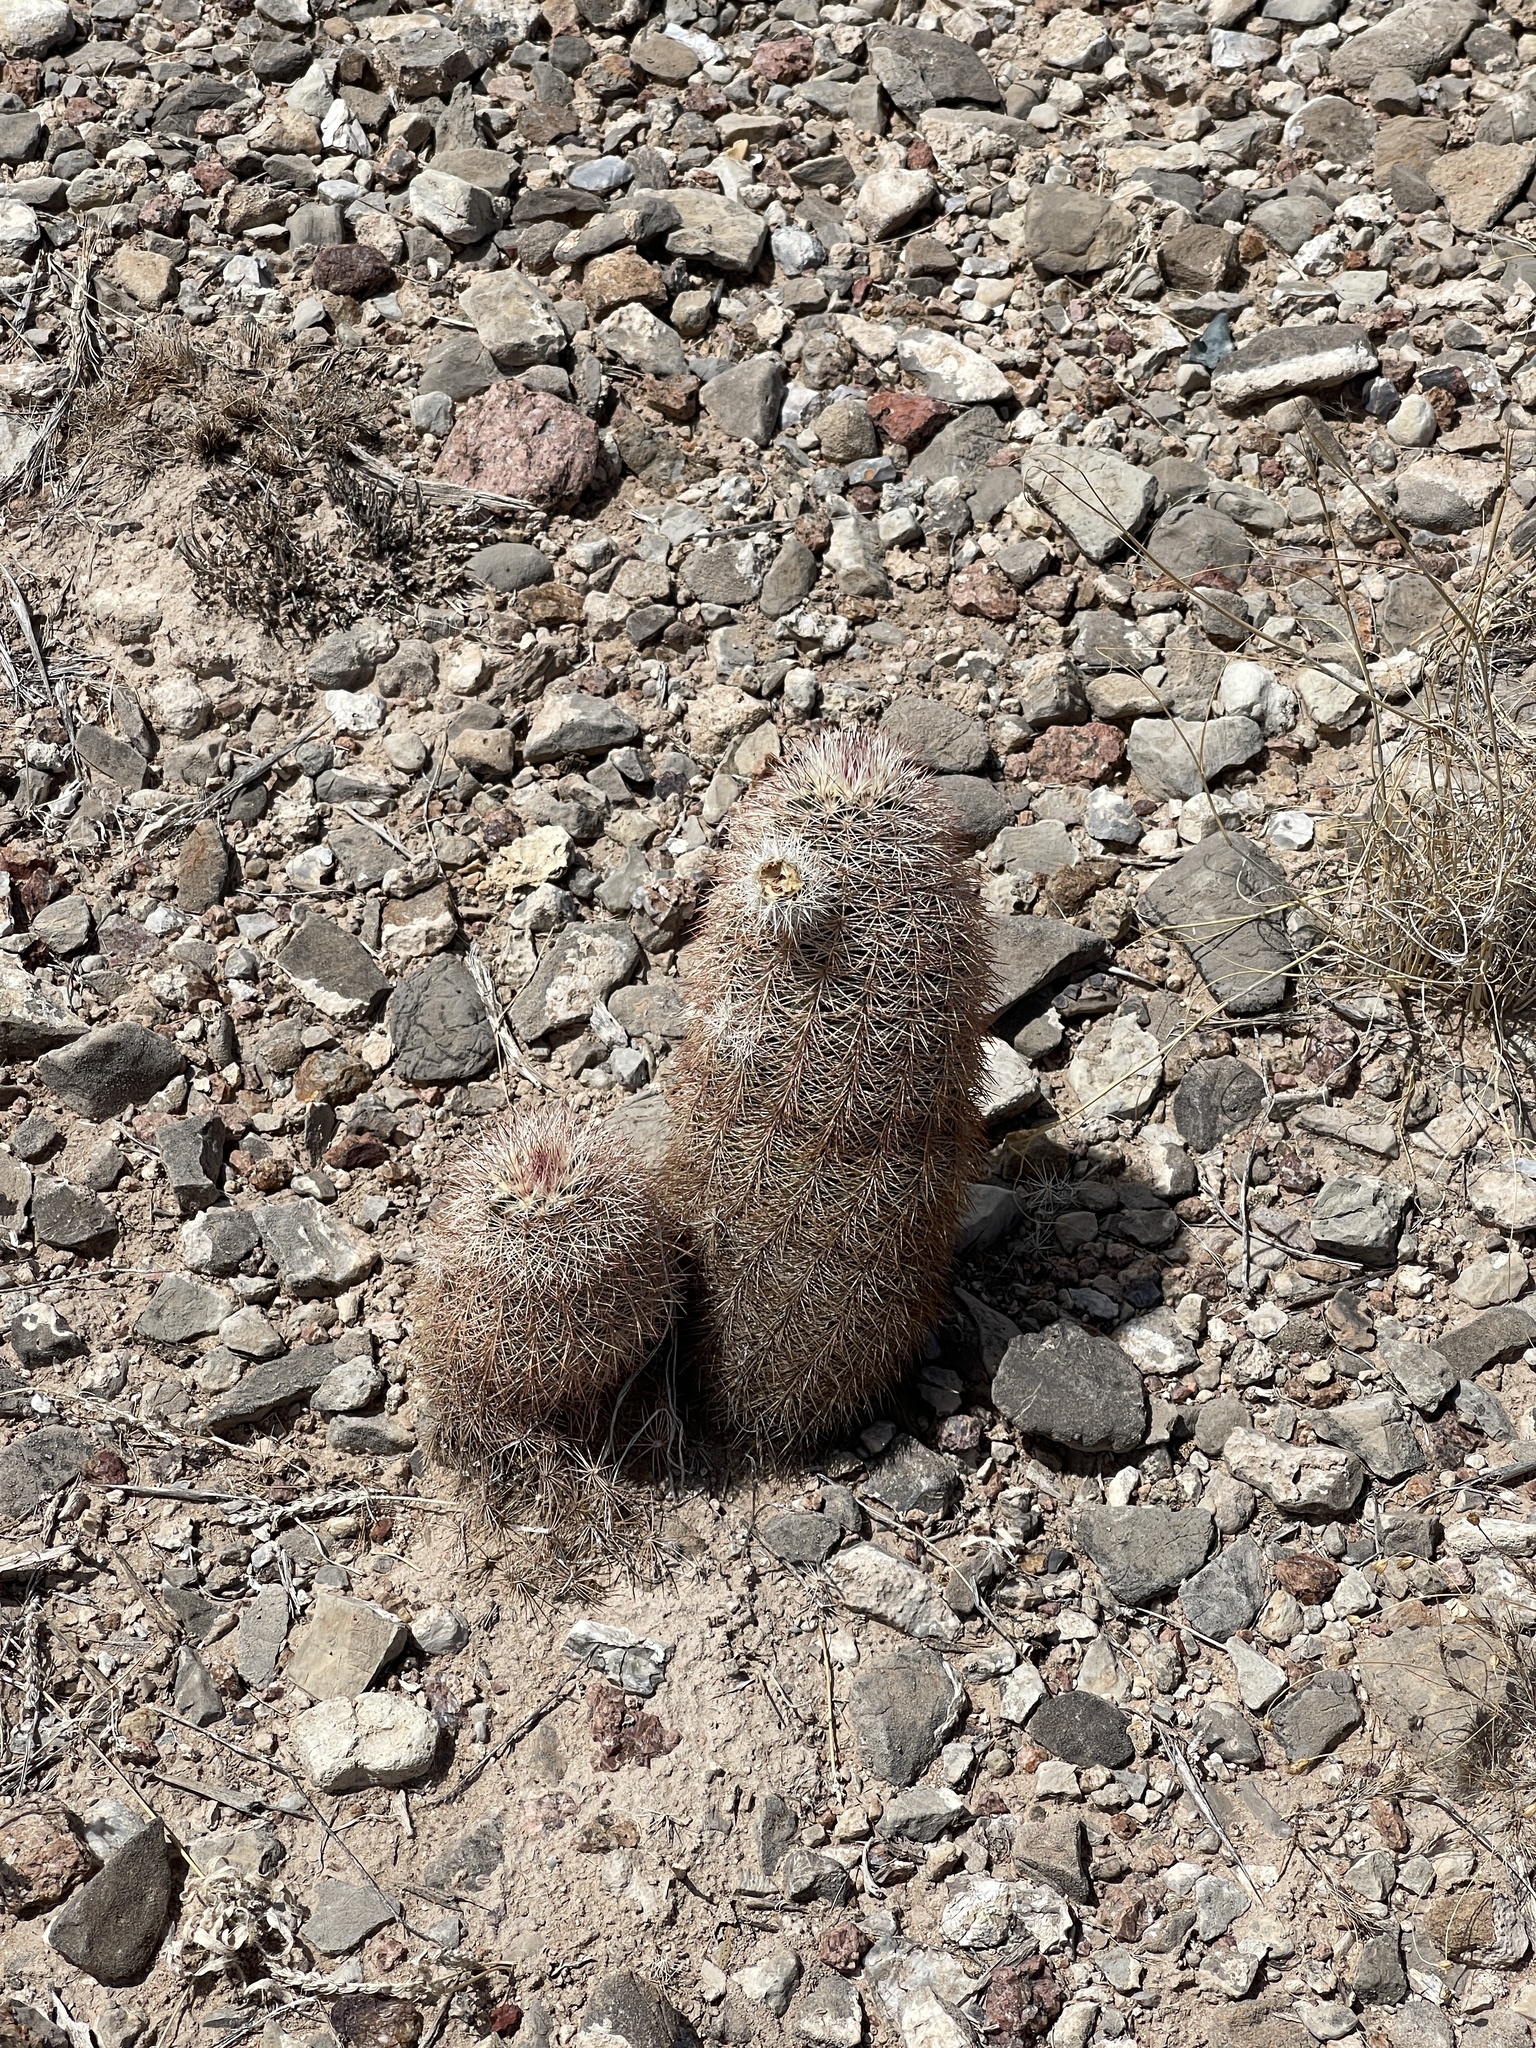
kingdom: Plantae
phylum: Tracheophyta
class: Magnoliopsida
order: Caryophyllales
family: Cactaceae
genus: Echinocereus
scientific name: Echinocereus dasyacanthus
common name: Spiny hedgehog cactus
